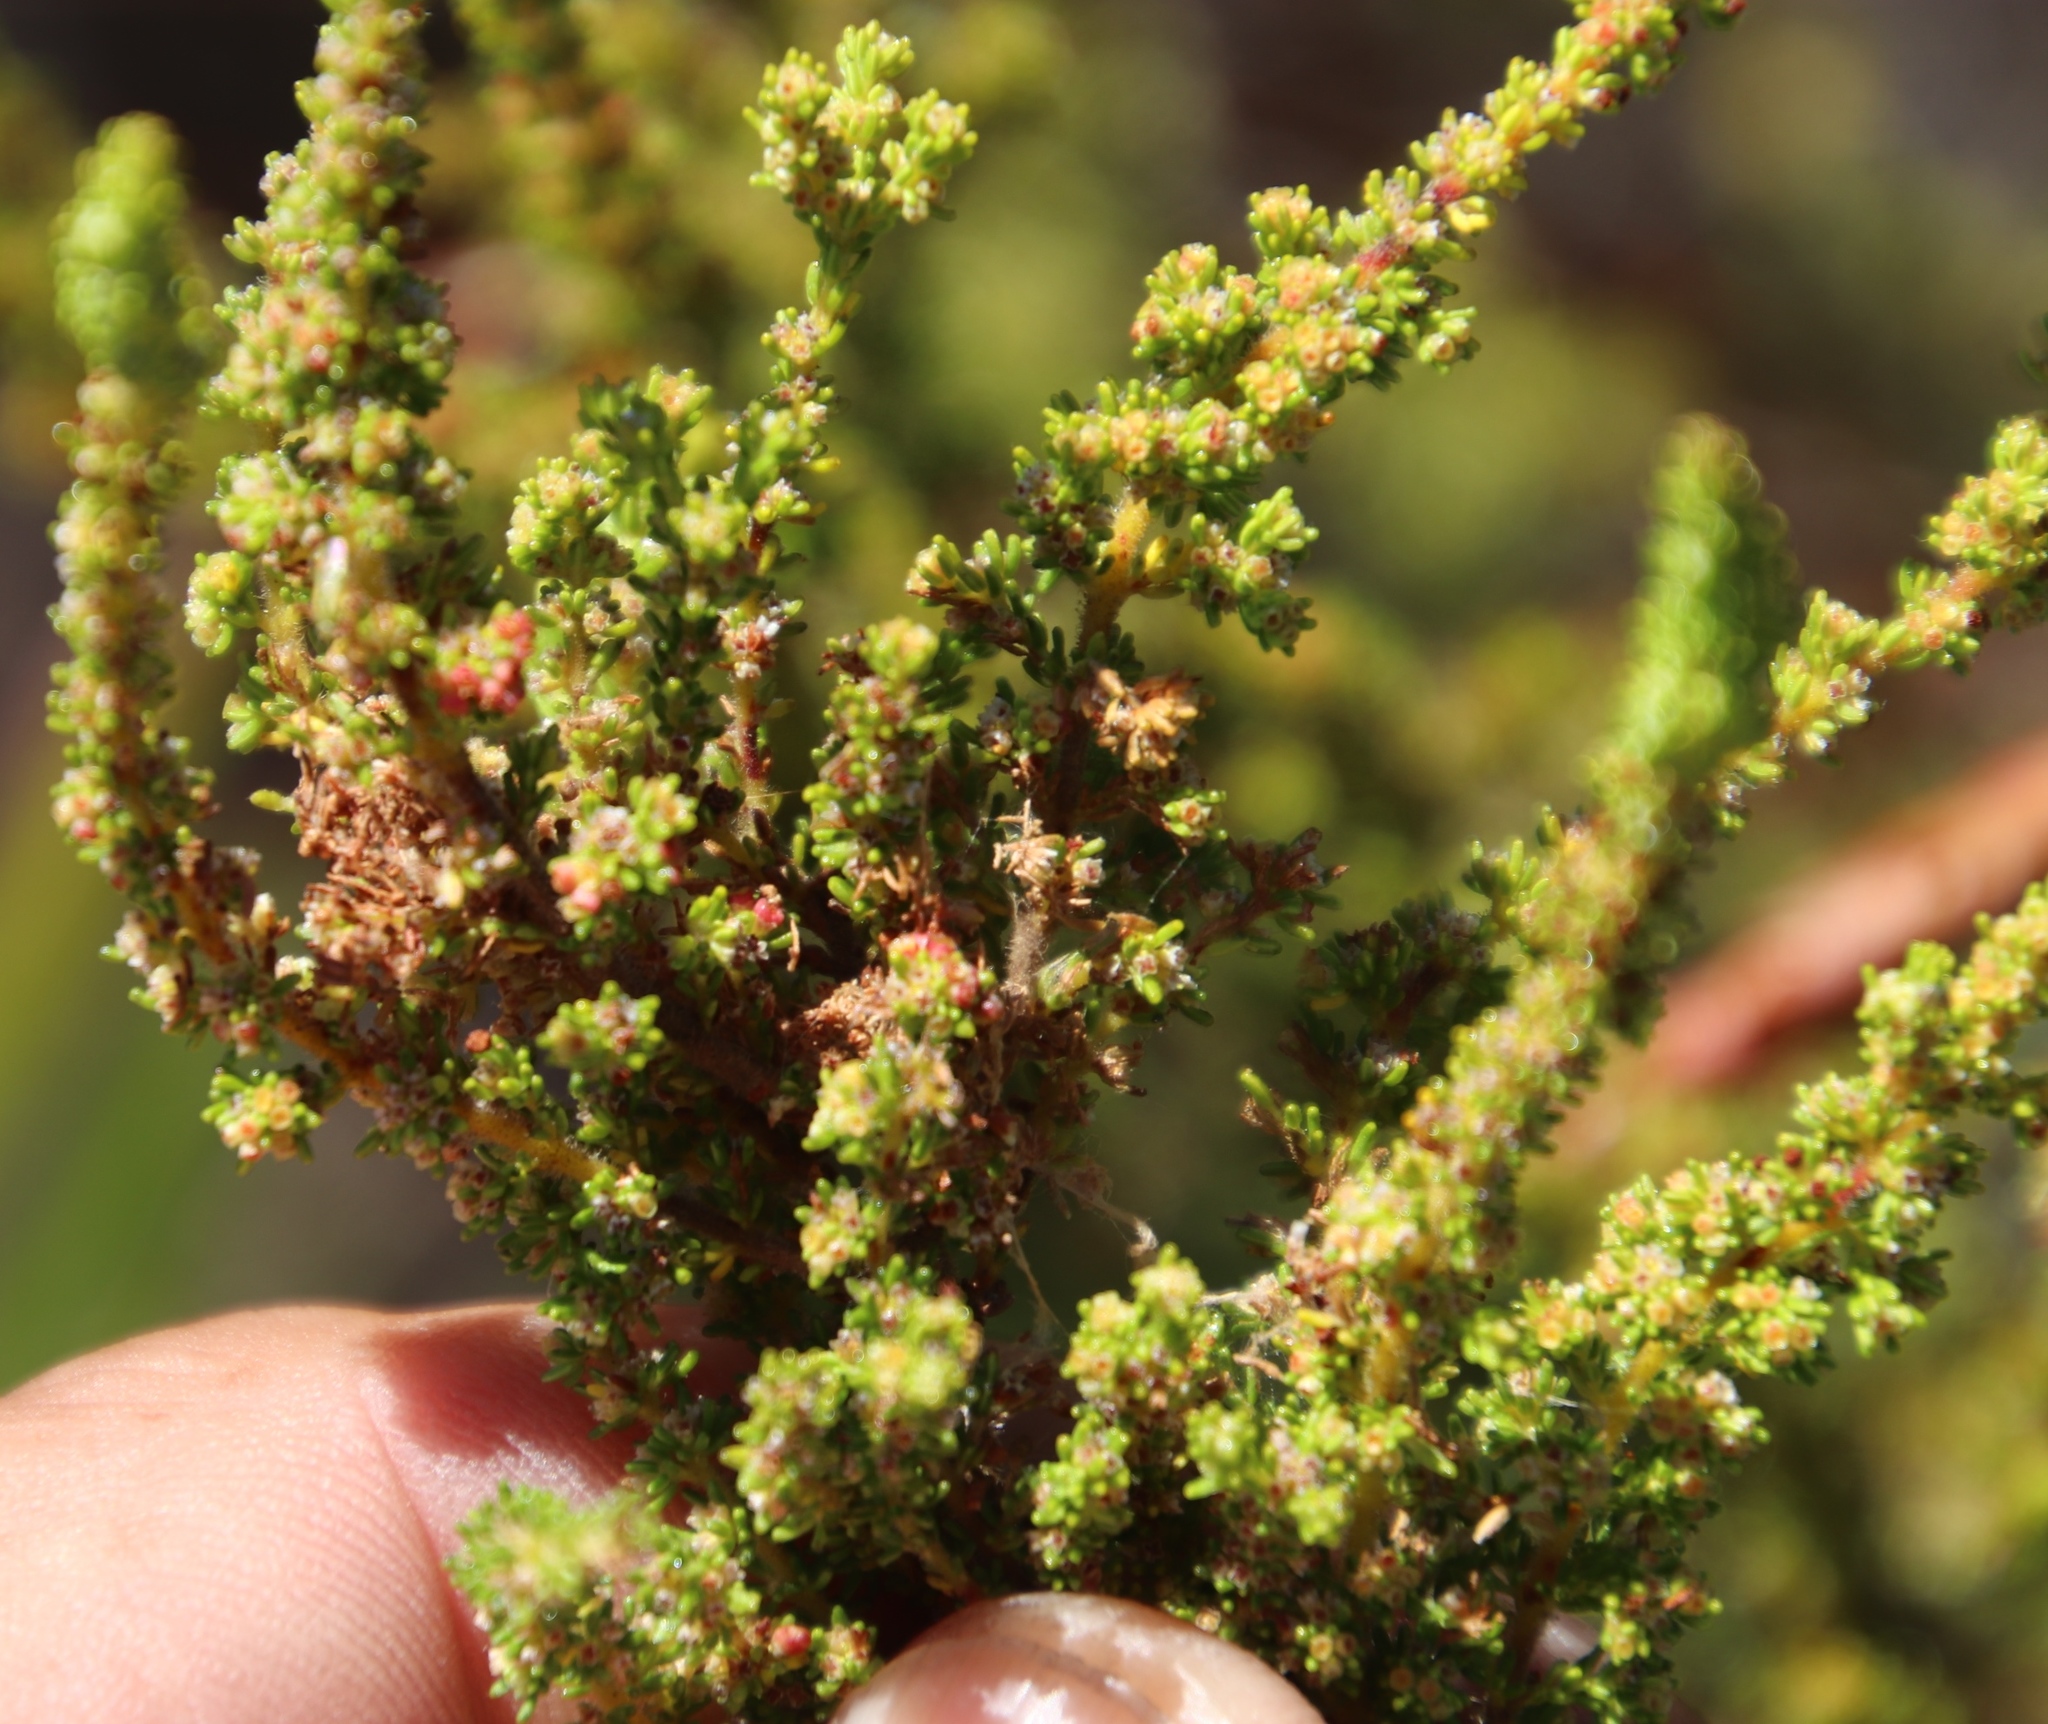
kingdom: Plantae
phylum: Tracheophyta
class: Magnoliopsida
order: Ericales
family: Ericaceae
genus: Erica
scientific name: Erica muscosa
